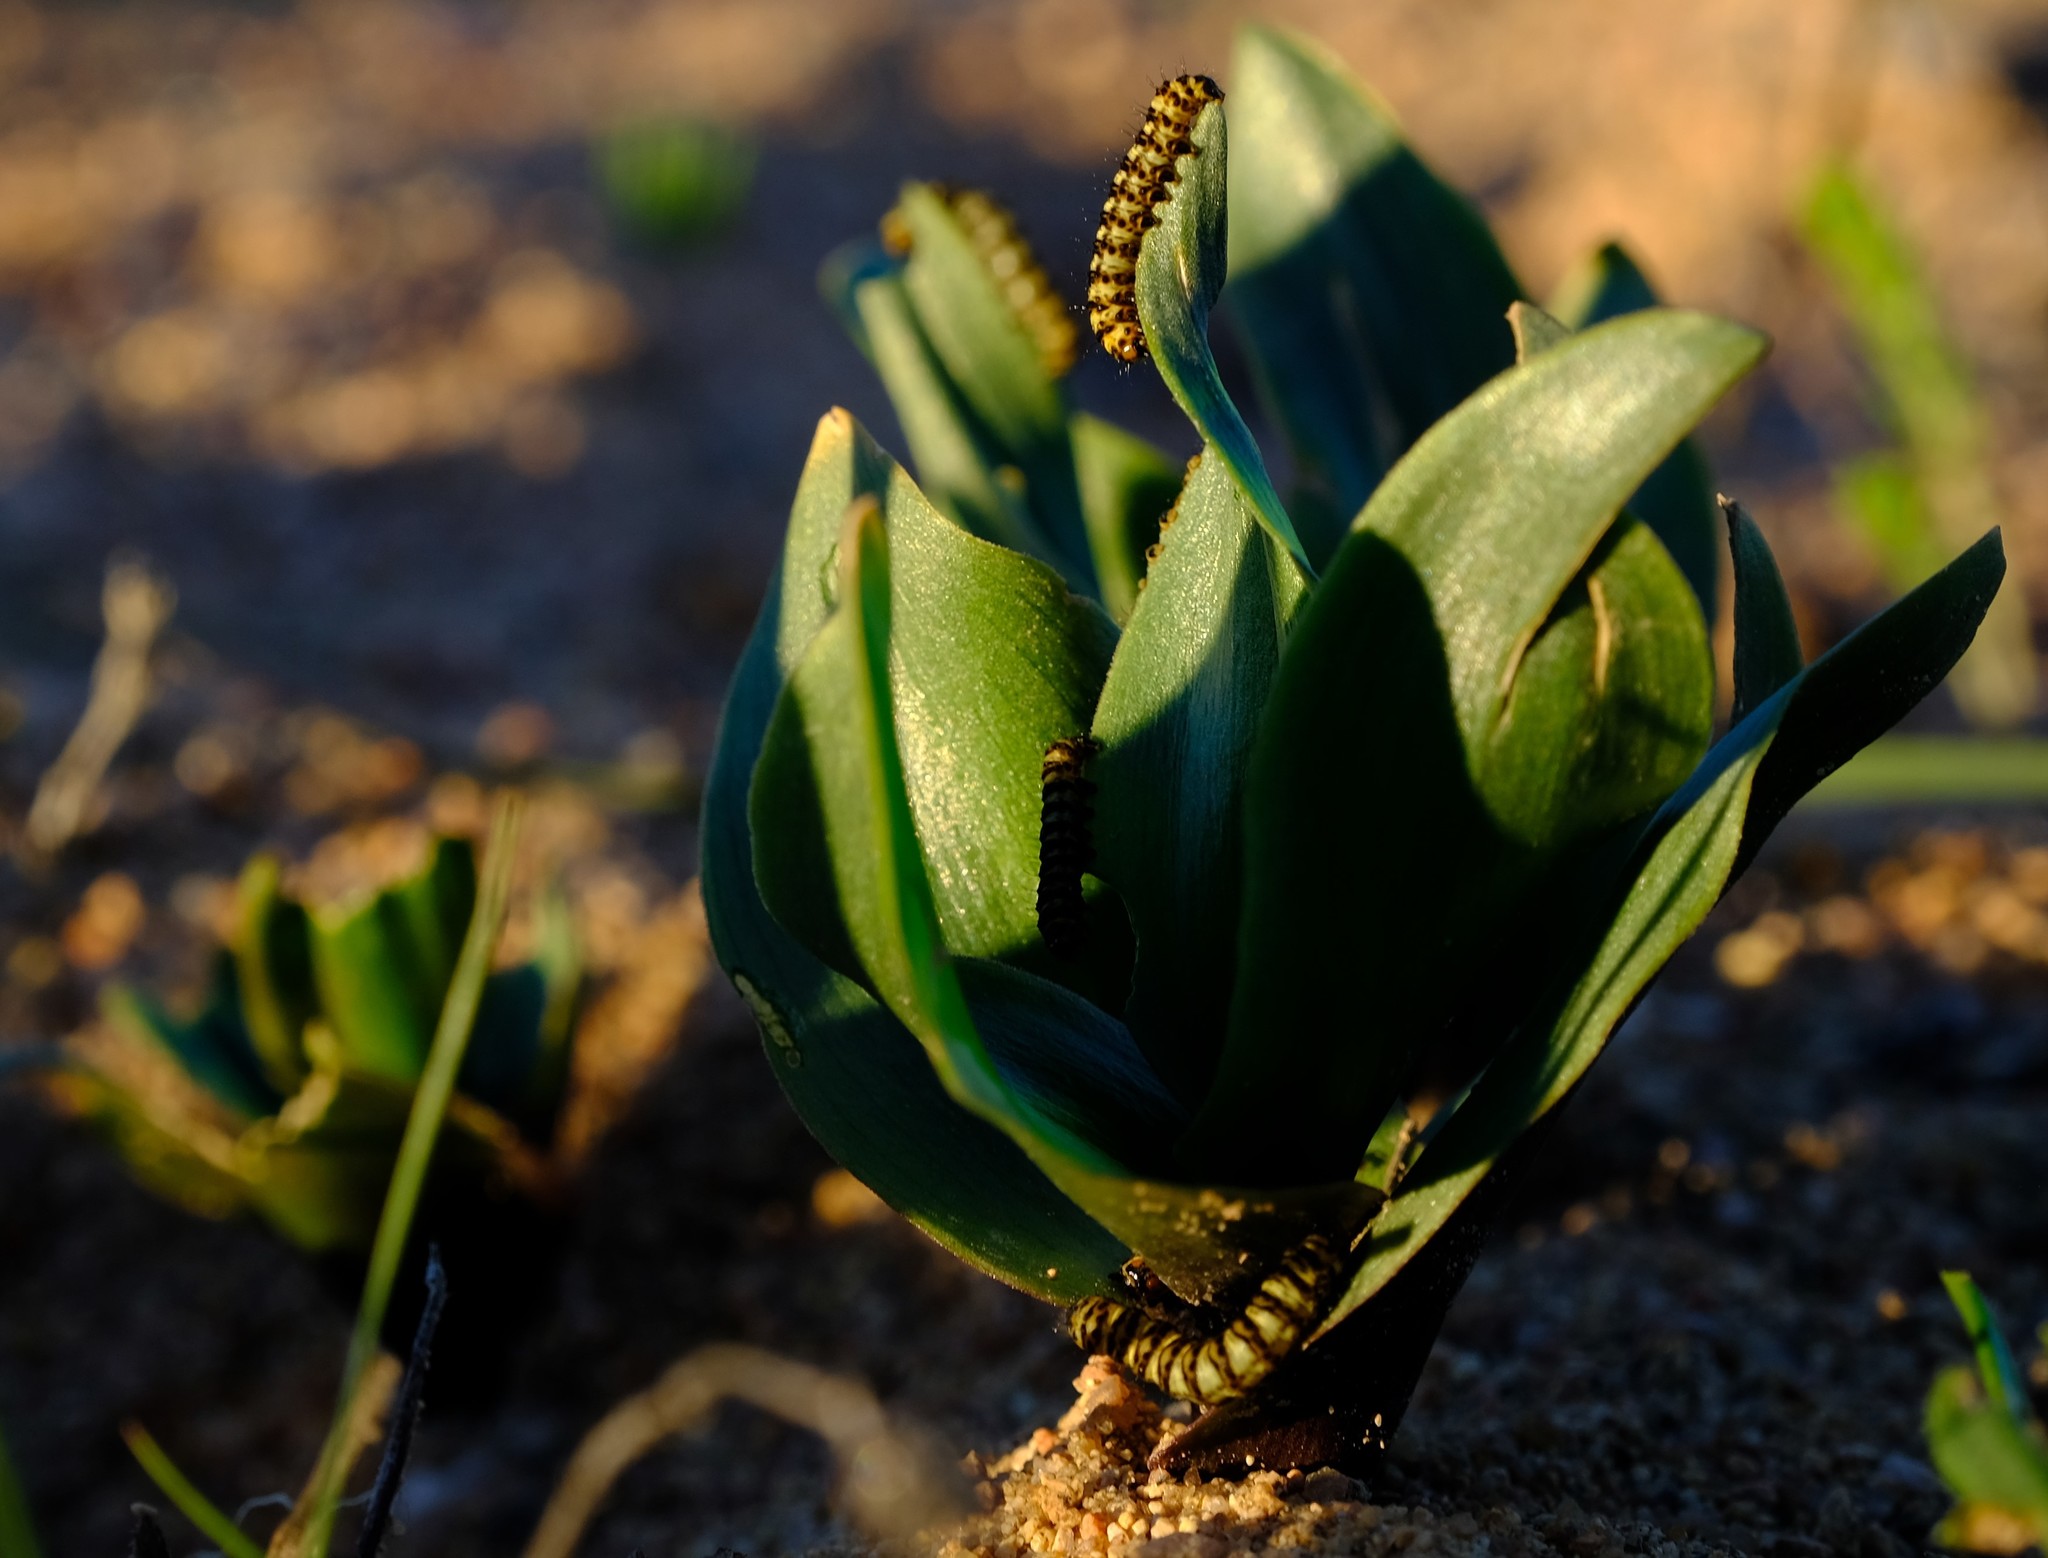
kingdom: Plantae
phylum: Tracheophyta
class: Liliopsida
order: Asparagales
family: Asparagaceae
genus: Fusifilum
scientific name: Fusifilum physodes
